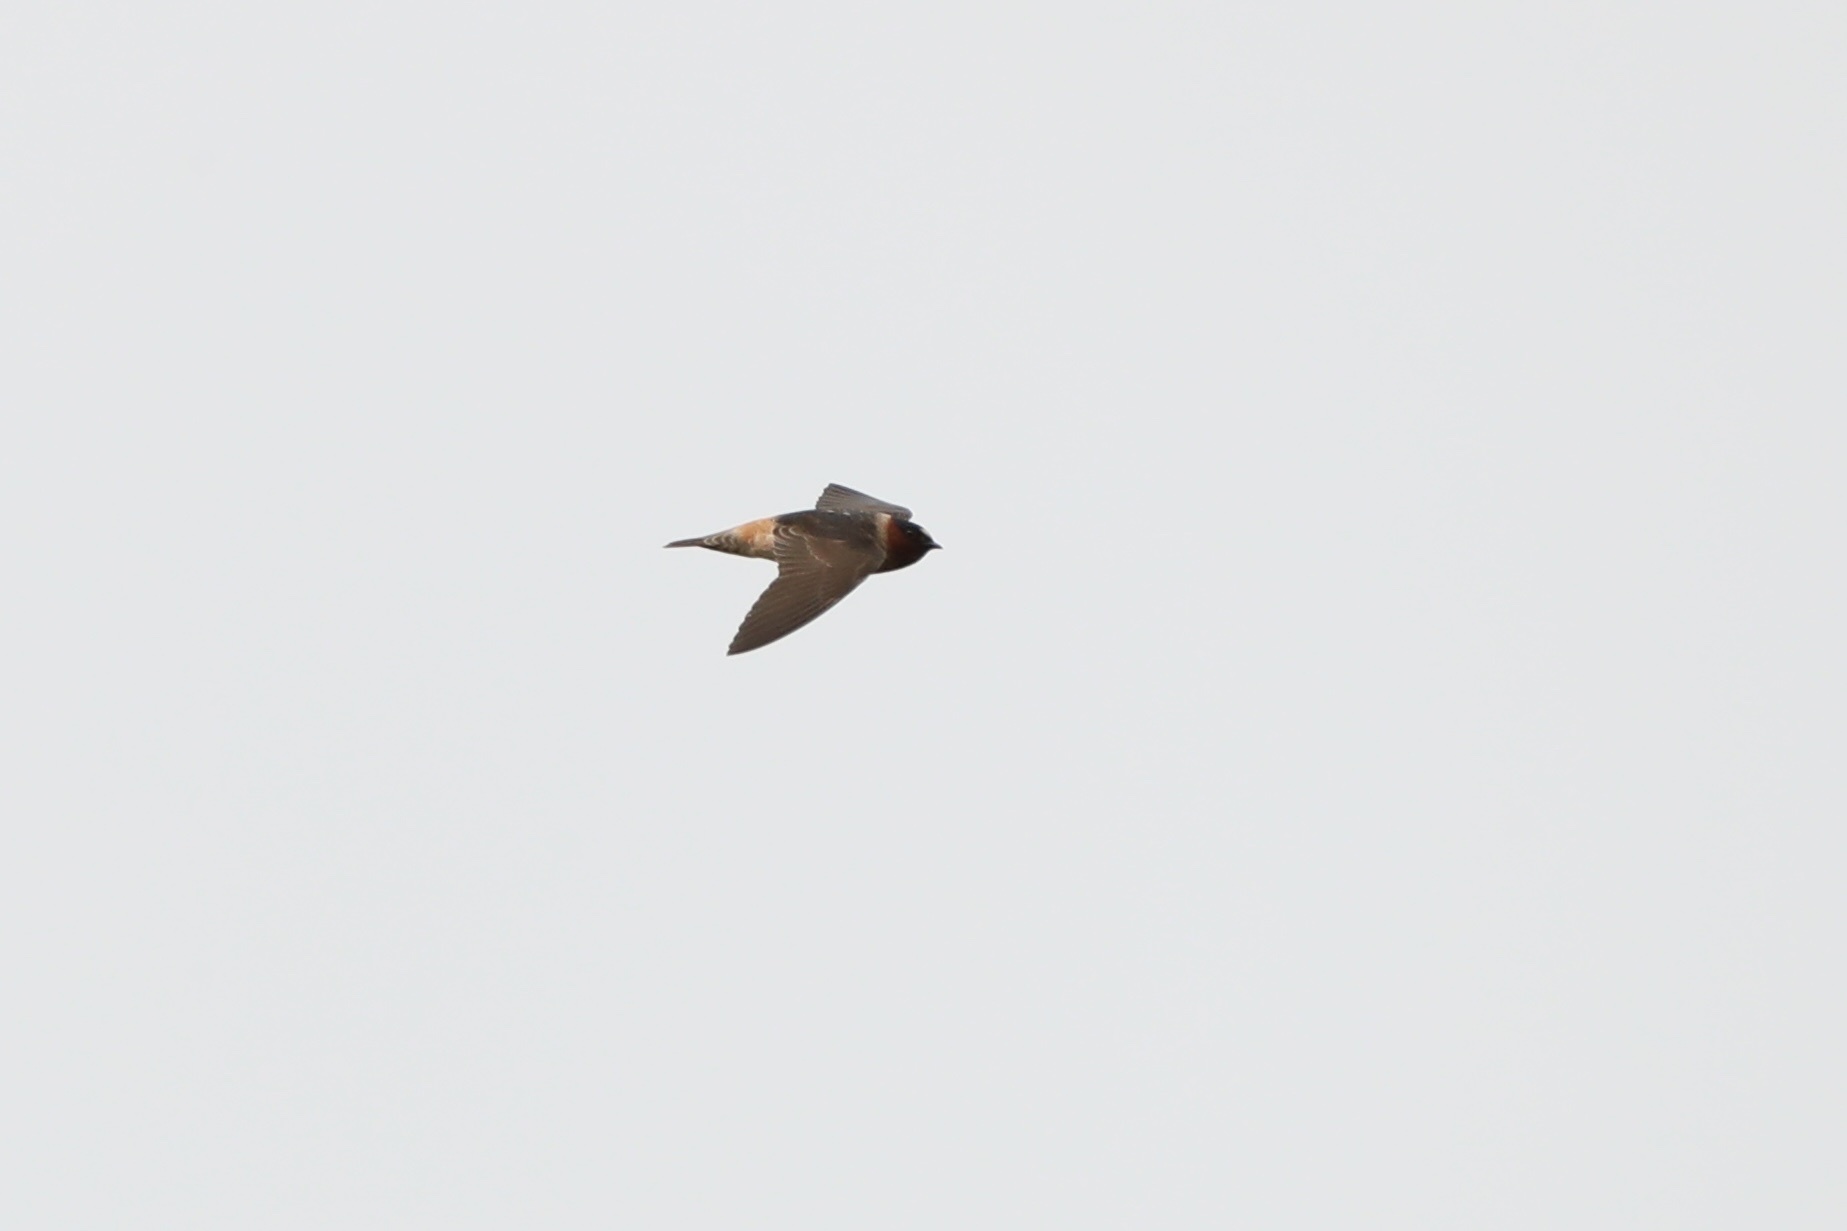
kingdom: Animalia
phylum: Chordata
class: Aves
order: Passeriformes
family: Hirundinidae
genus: Petrochelidon
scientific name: Petrochelidon pyrrhonota
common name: American cliff swallow
